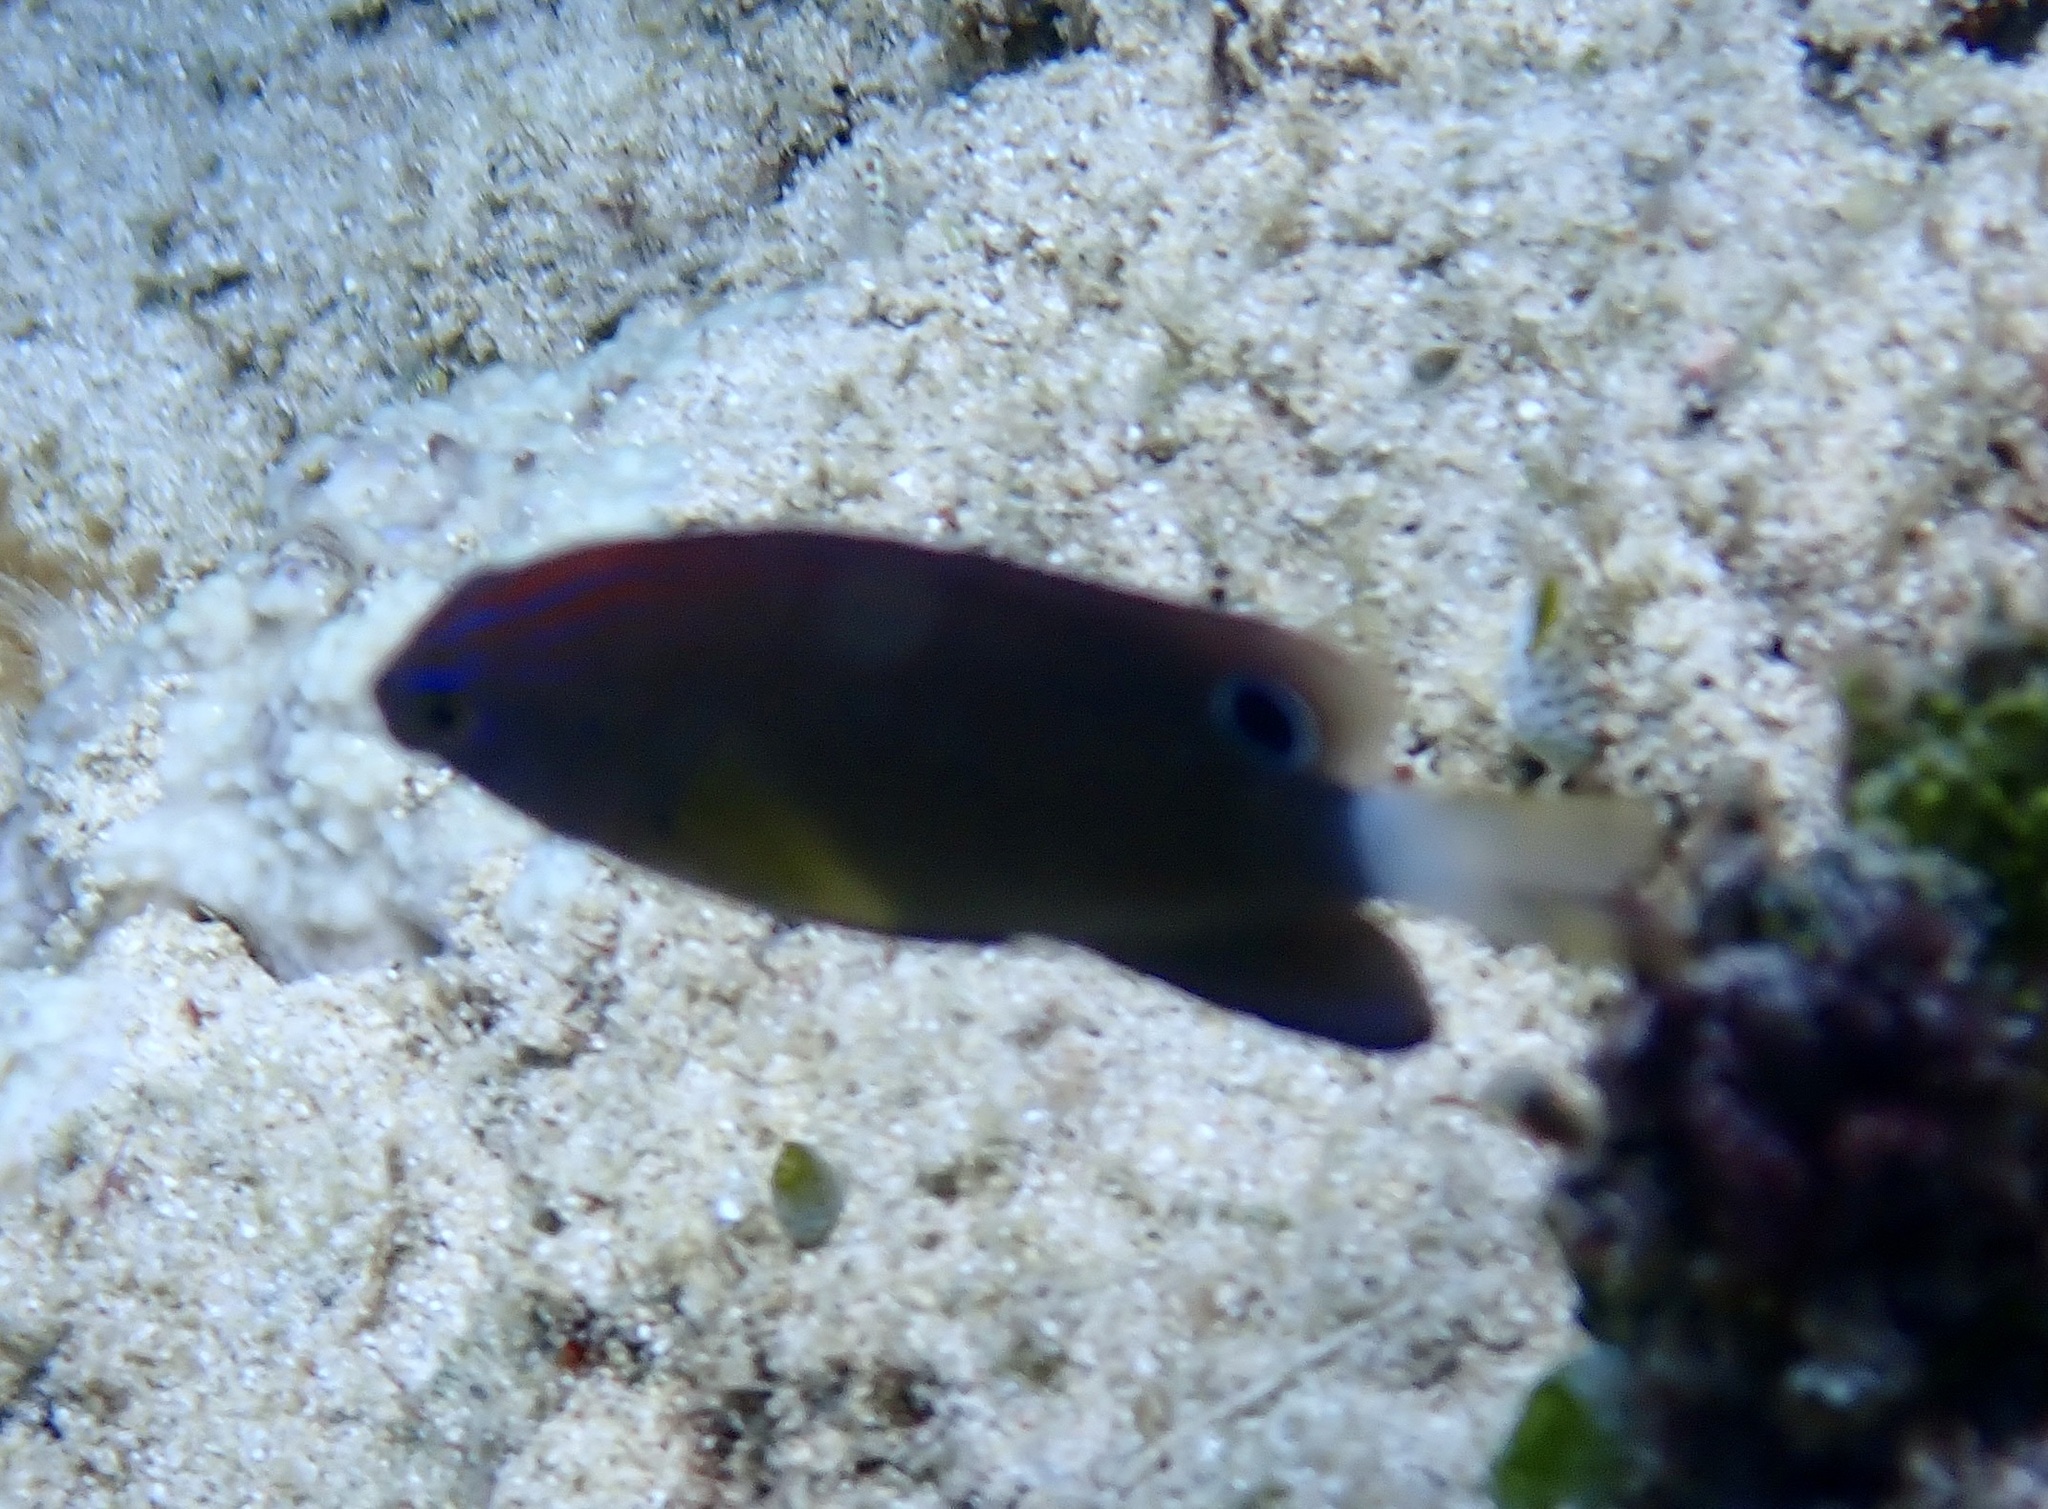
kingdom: Animalia
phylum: Chordata
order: Perciformes
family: Pomacentridae
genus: Pomacentrus
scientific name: Pomacentrus bankanensis
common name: Speckled damsel
